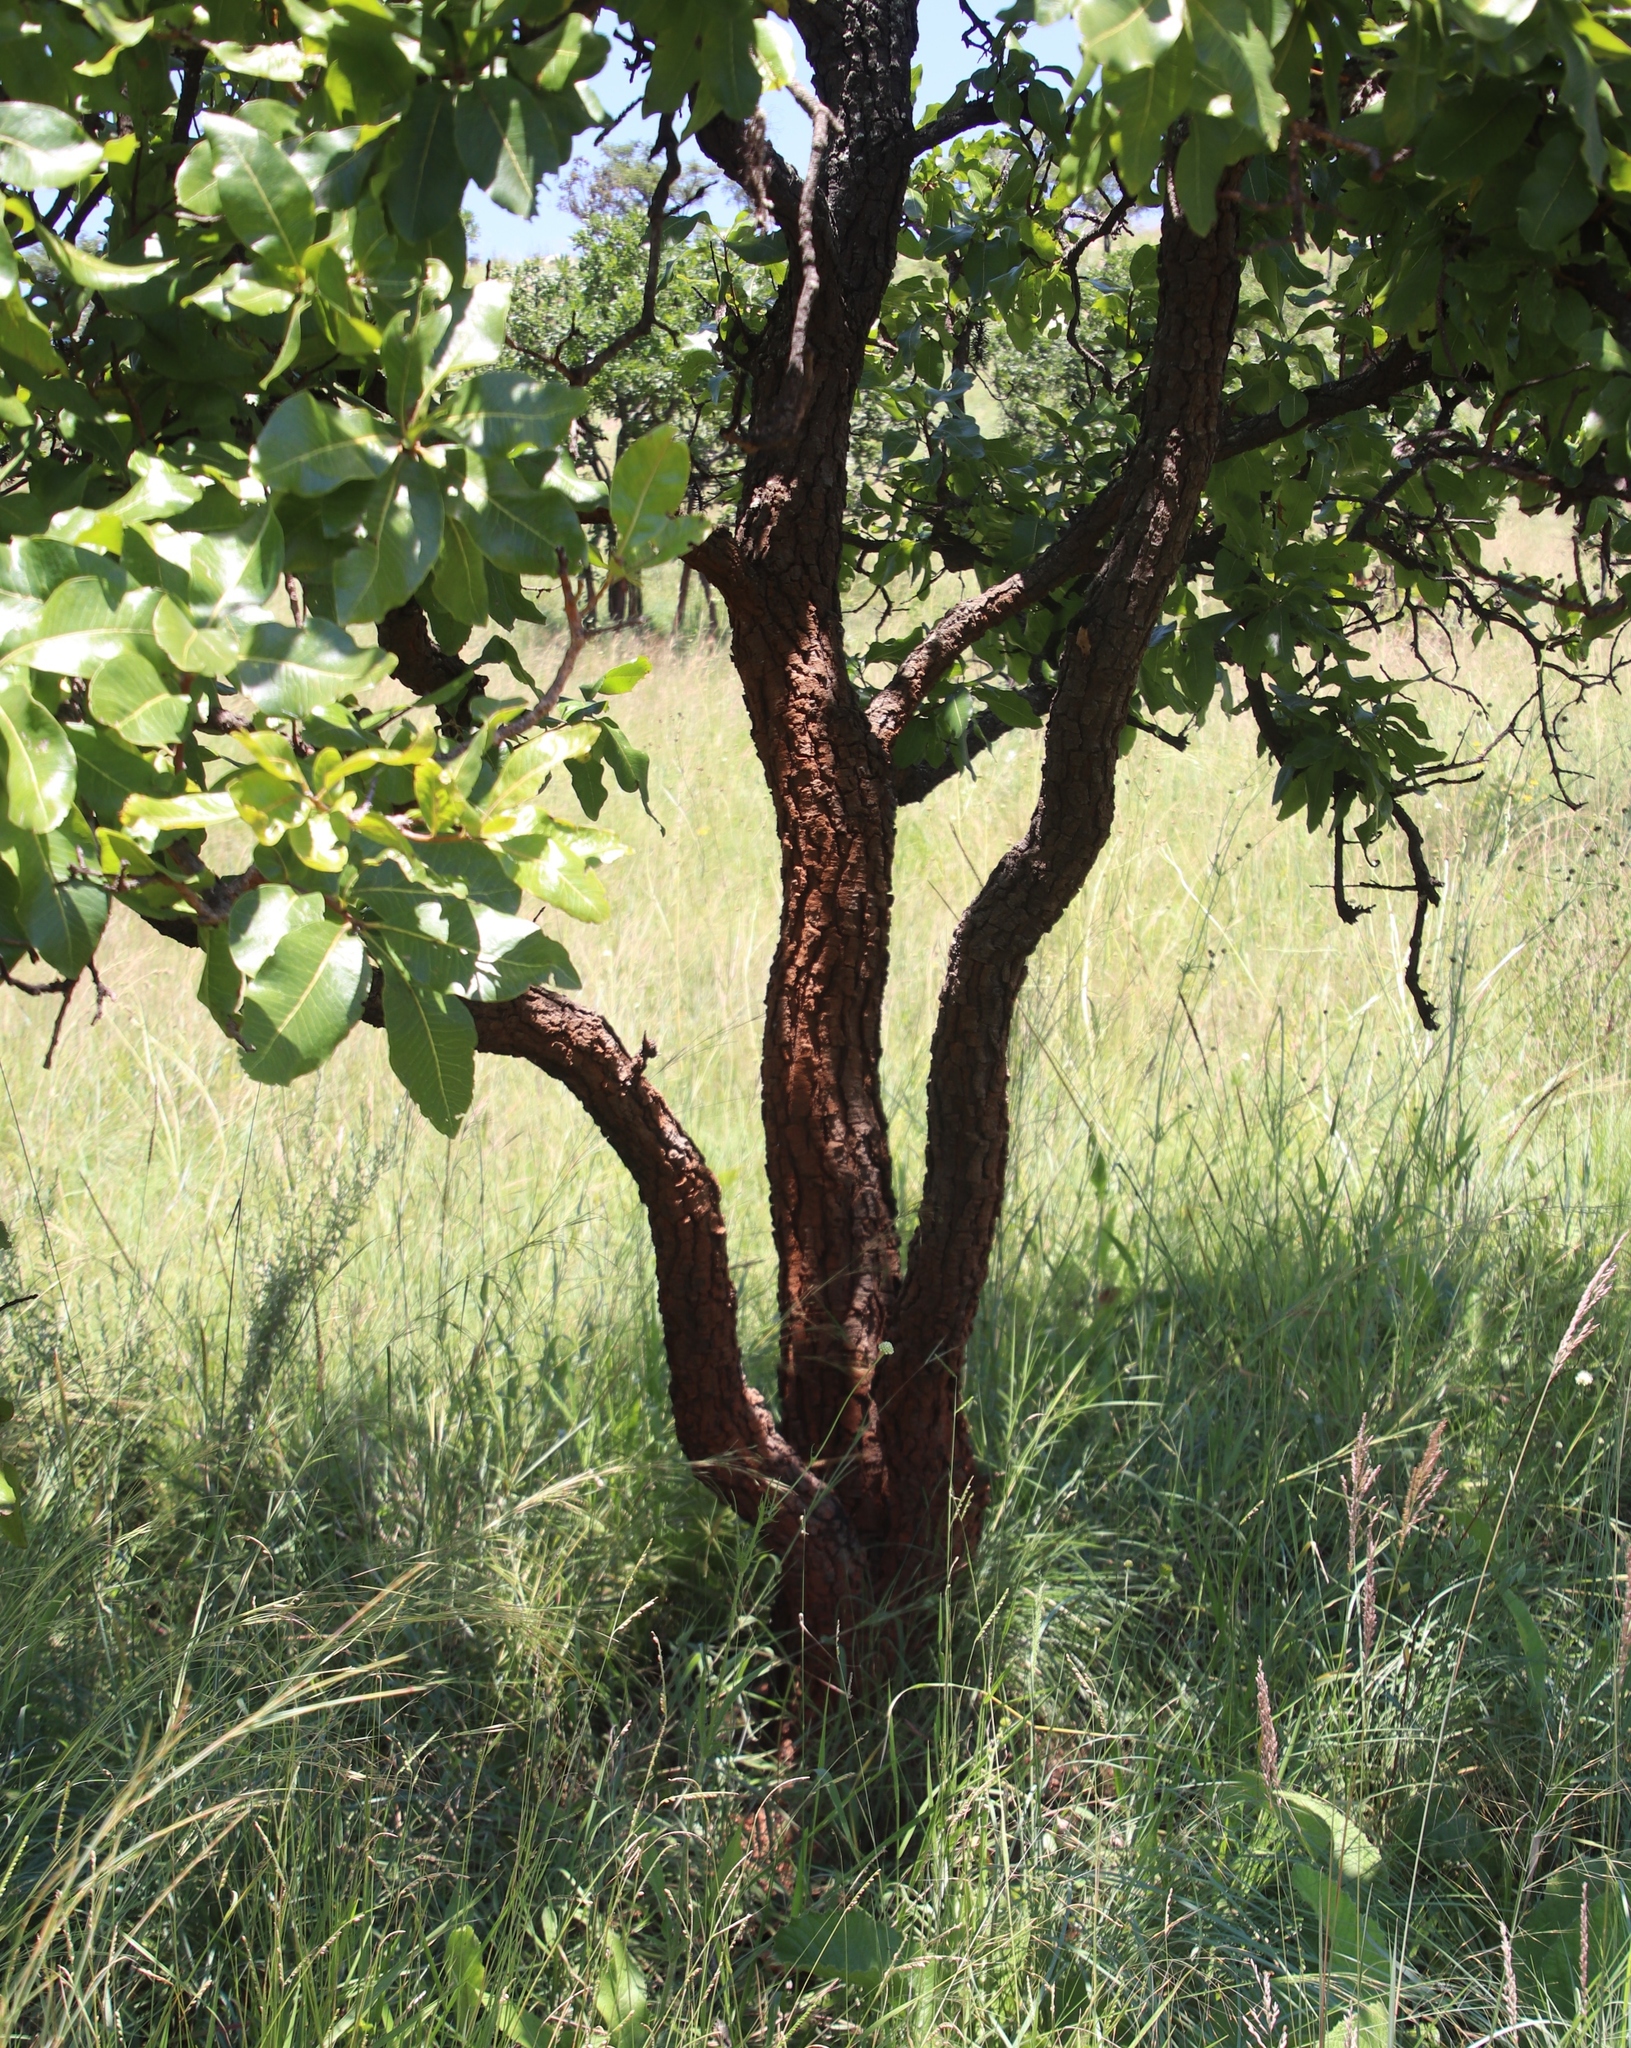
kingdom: Plantae
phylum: Tracheophyta
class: Magnoliopsida
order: Proteales
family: Proteaceae
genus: Faurea
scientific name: Faurea rochetiana
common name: Broad-leaved beech
